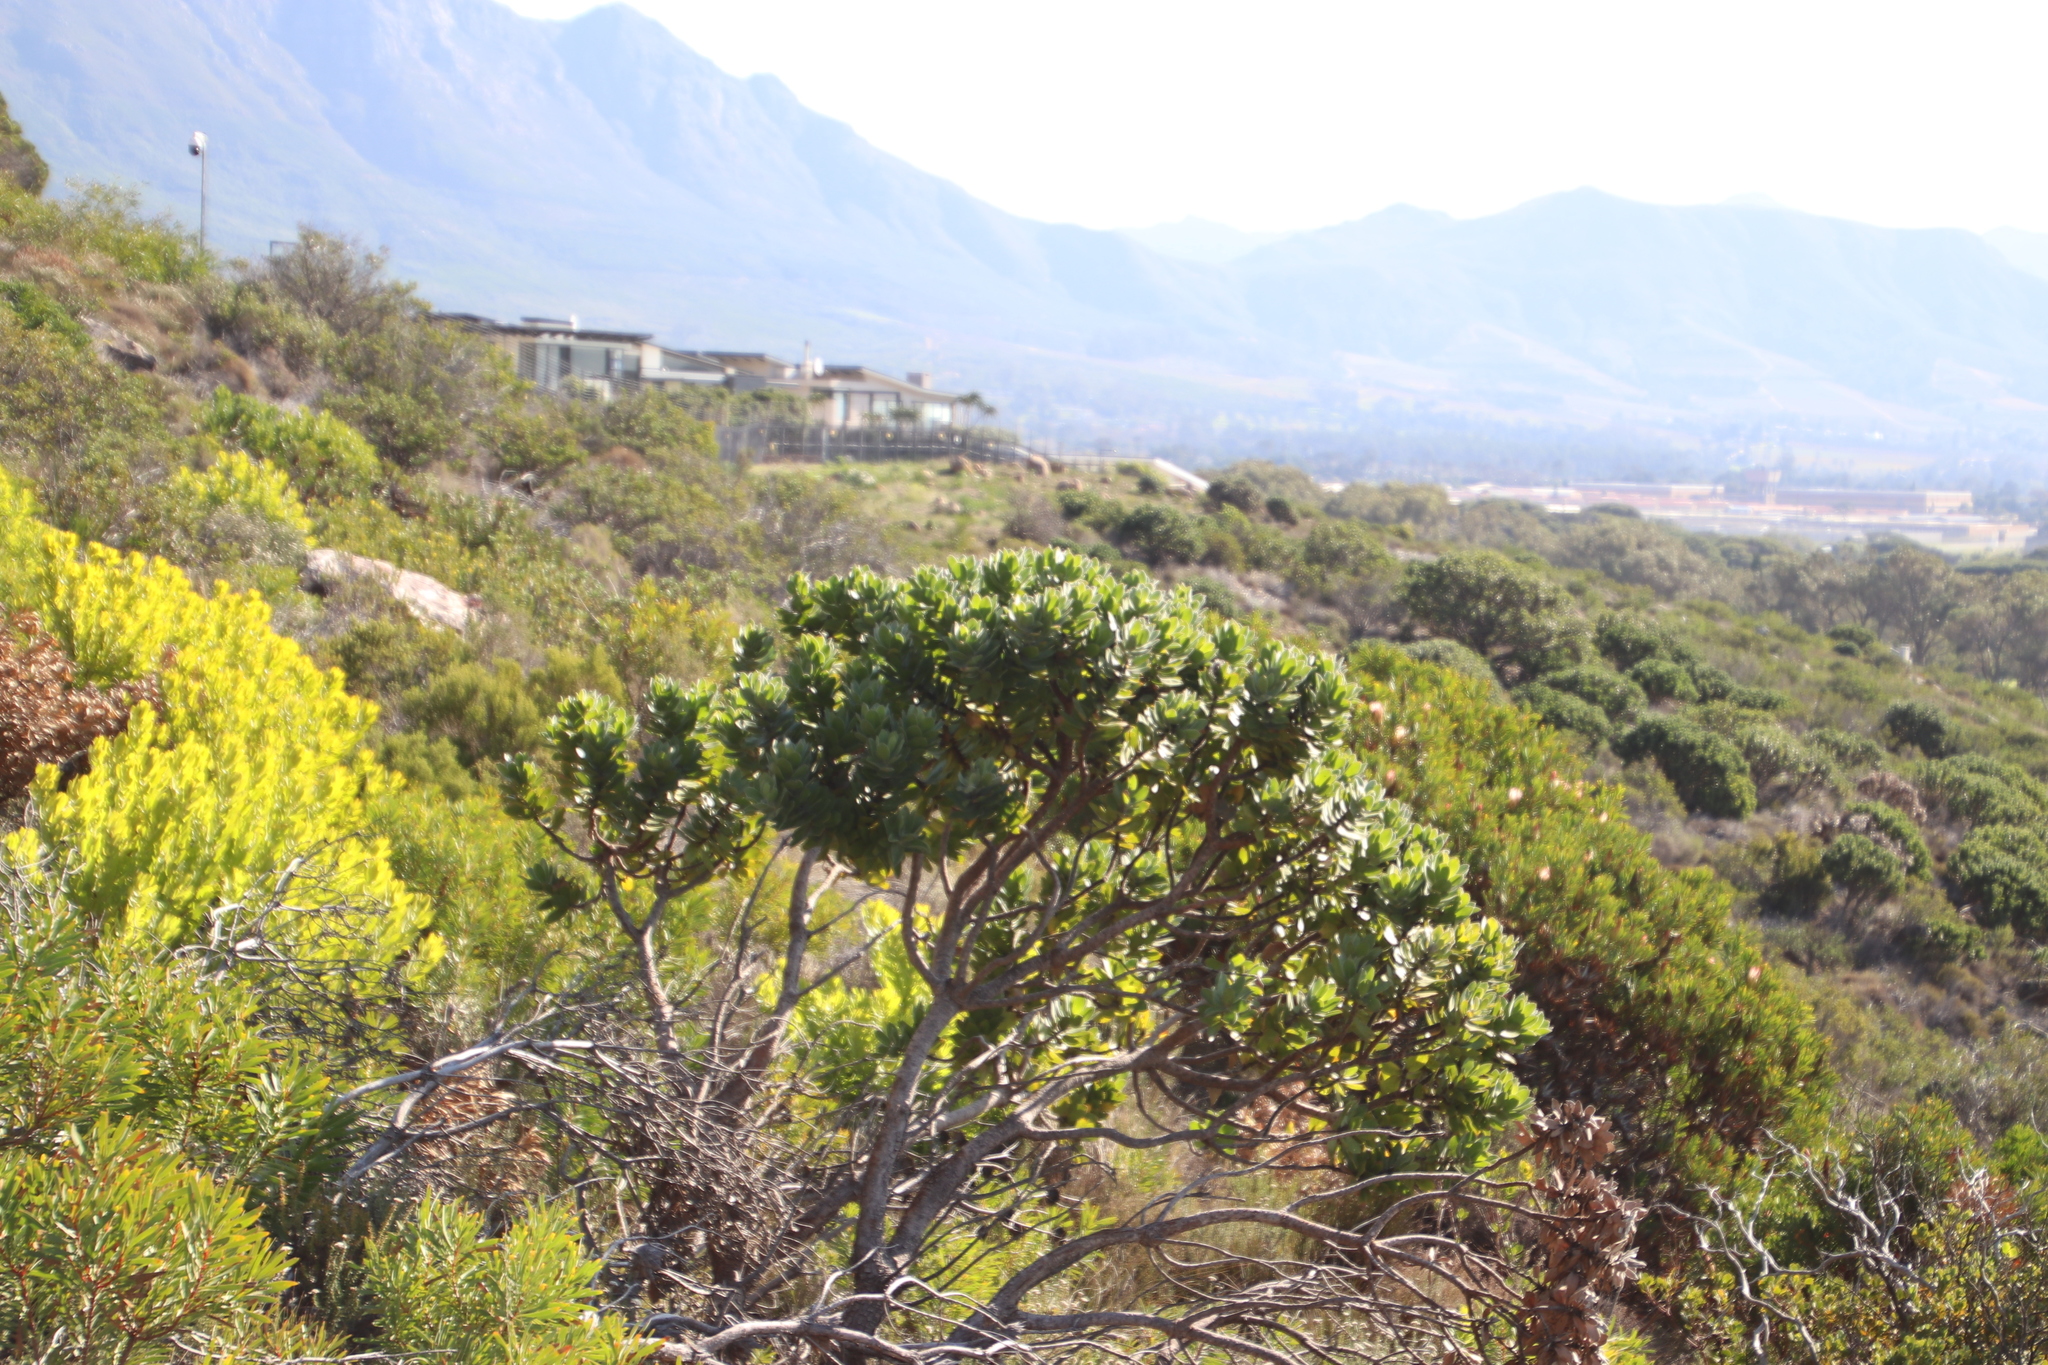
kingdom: Plantae
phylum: Tracheophyta
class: Magnoliopsida
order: Proteales
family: Proteaceae
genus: Leucospermum
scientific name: Leucospermum conocarpodendron
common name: Tree pincushion
